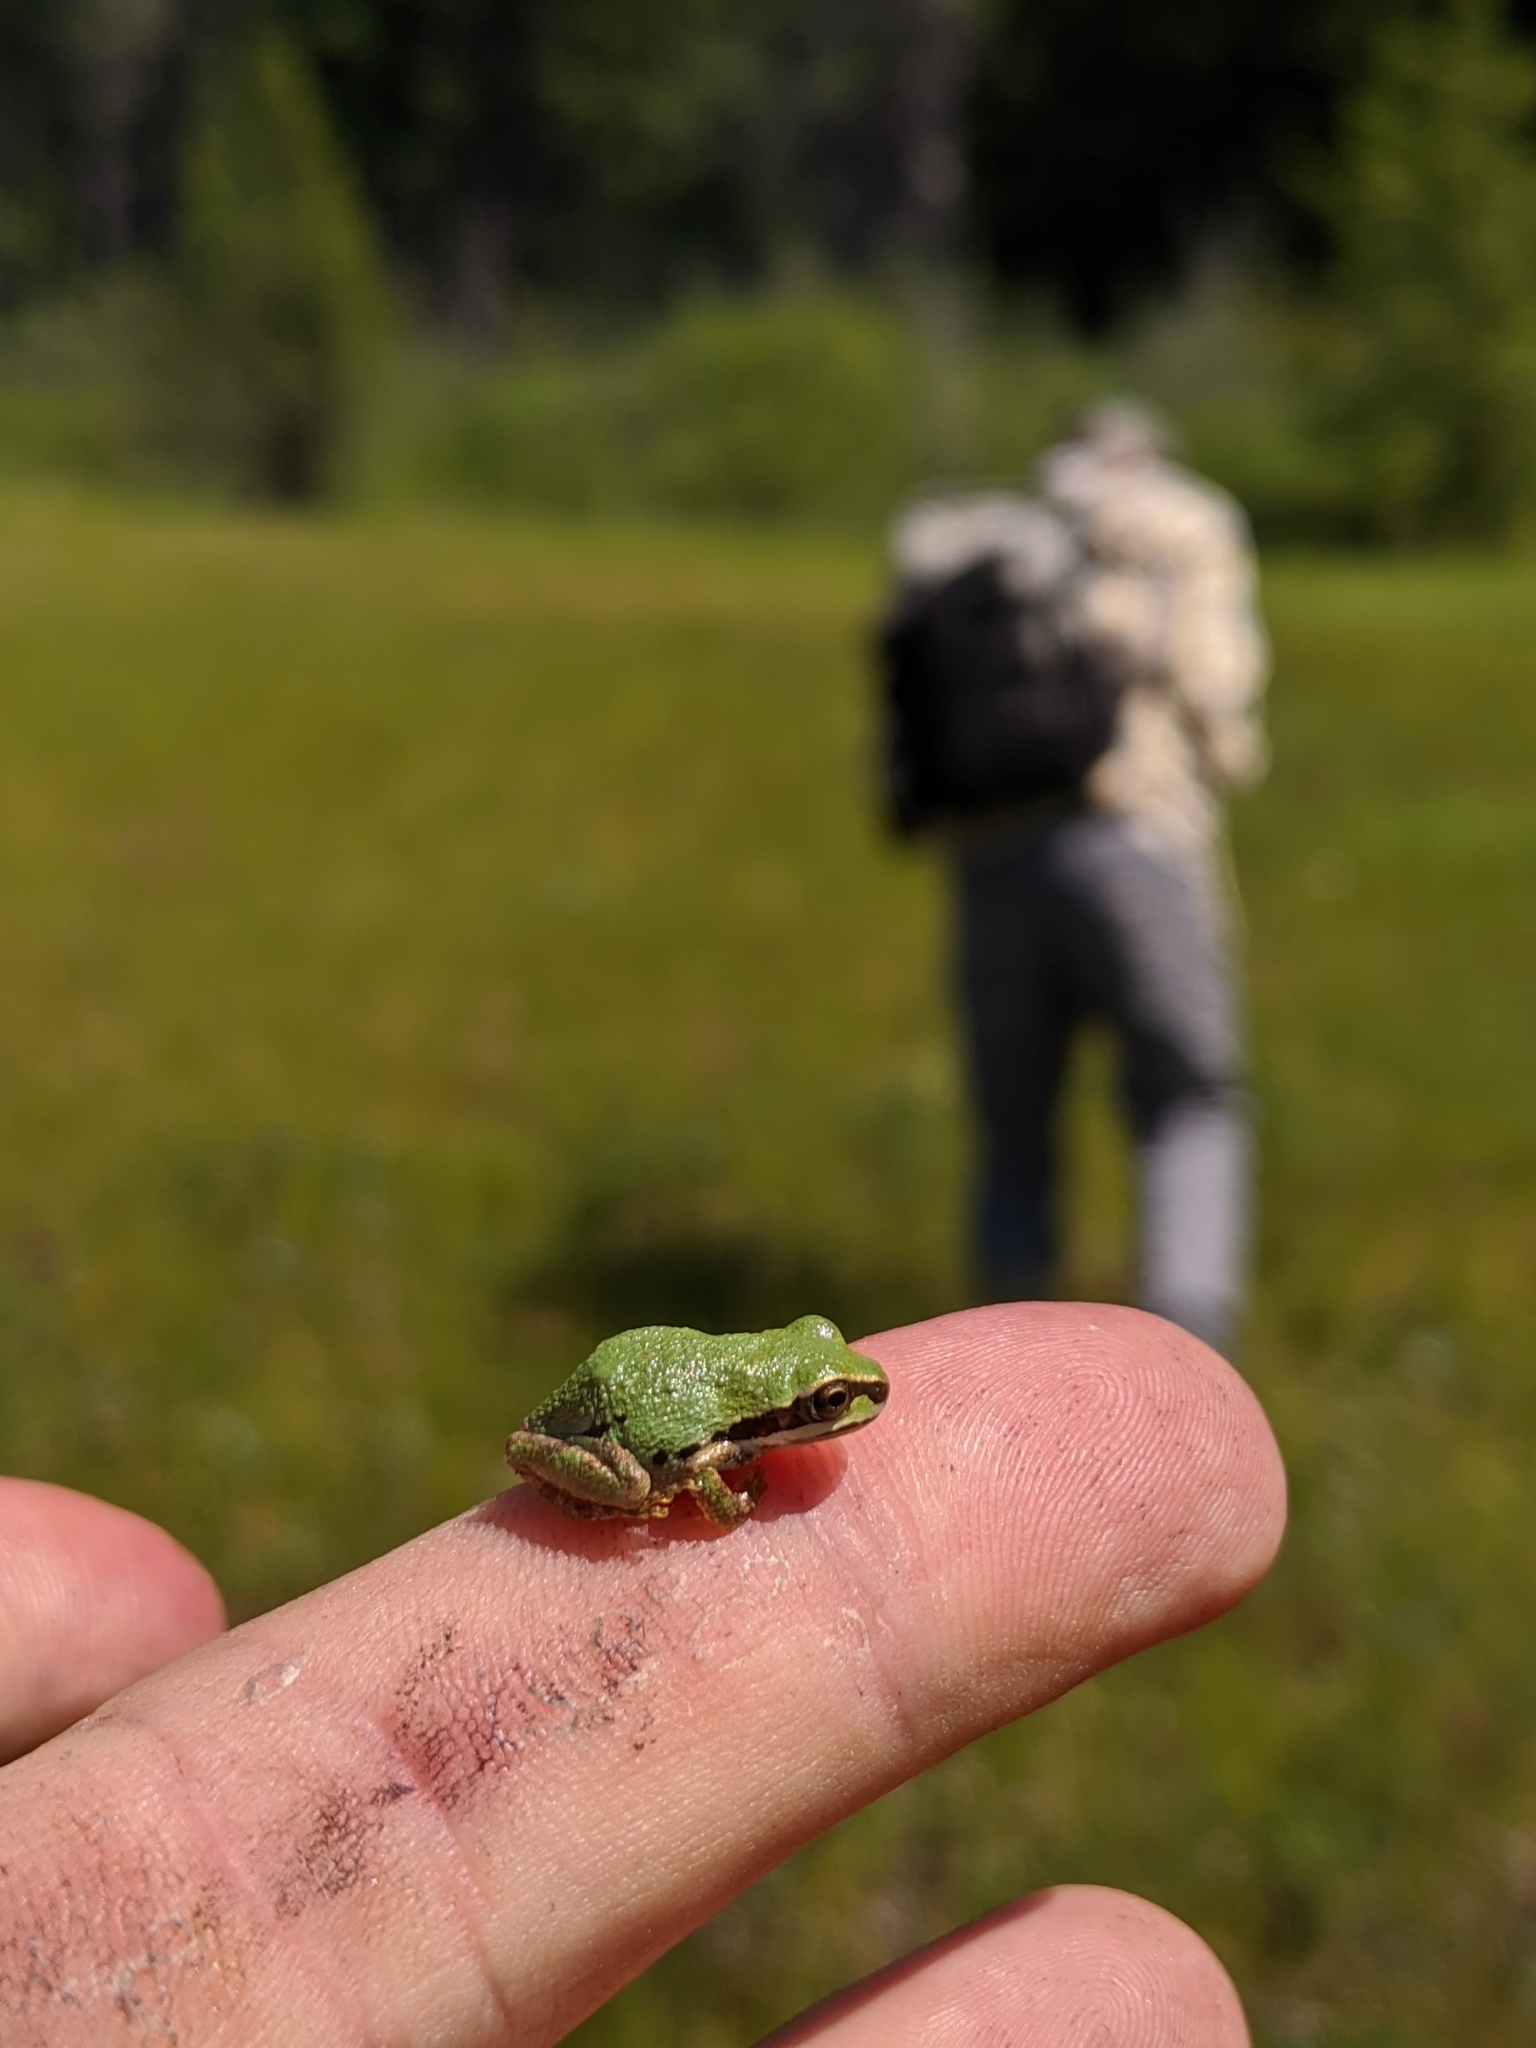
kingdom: Animalia
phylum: Chordata
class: Amphibia
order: Anura
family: Hylidae
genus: Pseudacris
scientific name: Pseudacris regilla
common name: Pacific chorus frog
